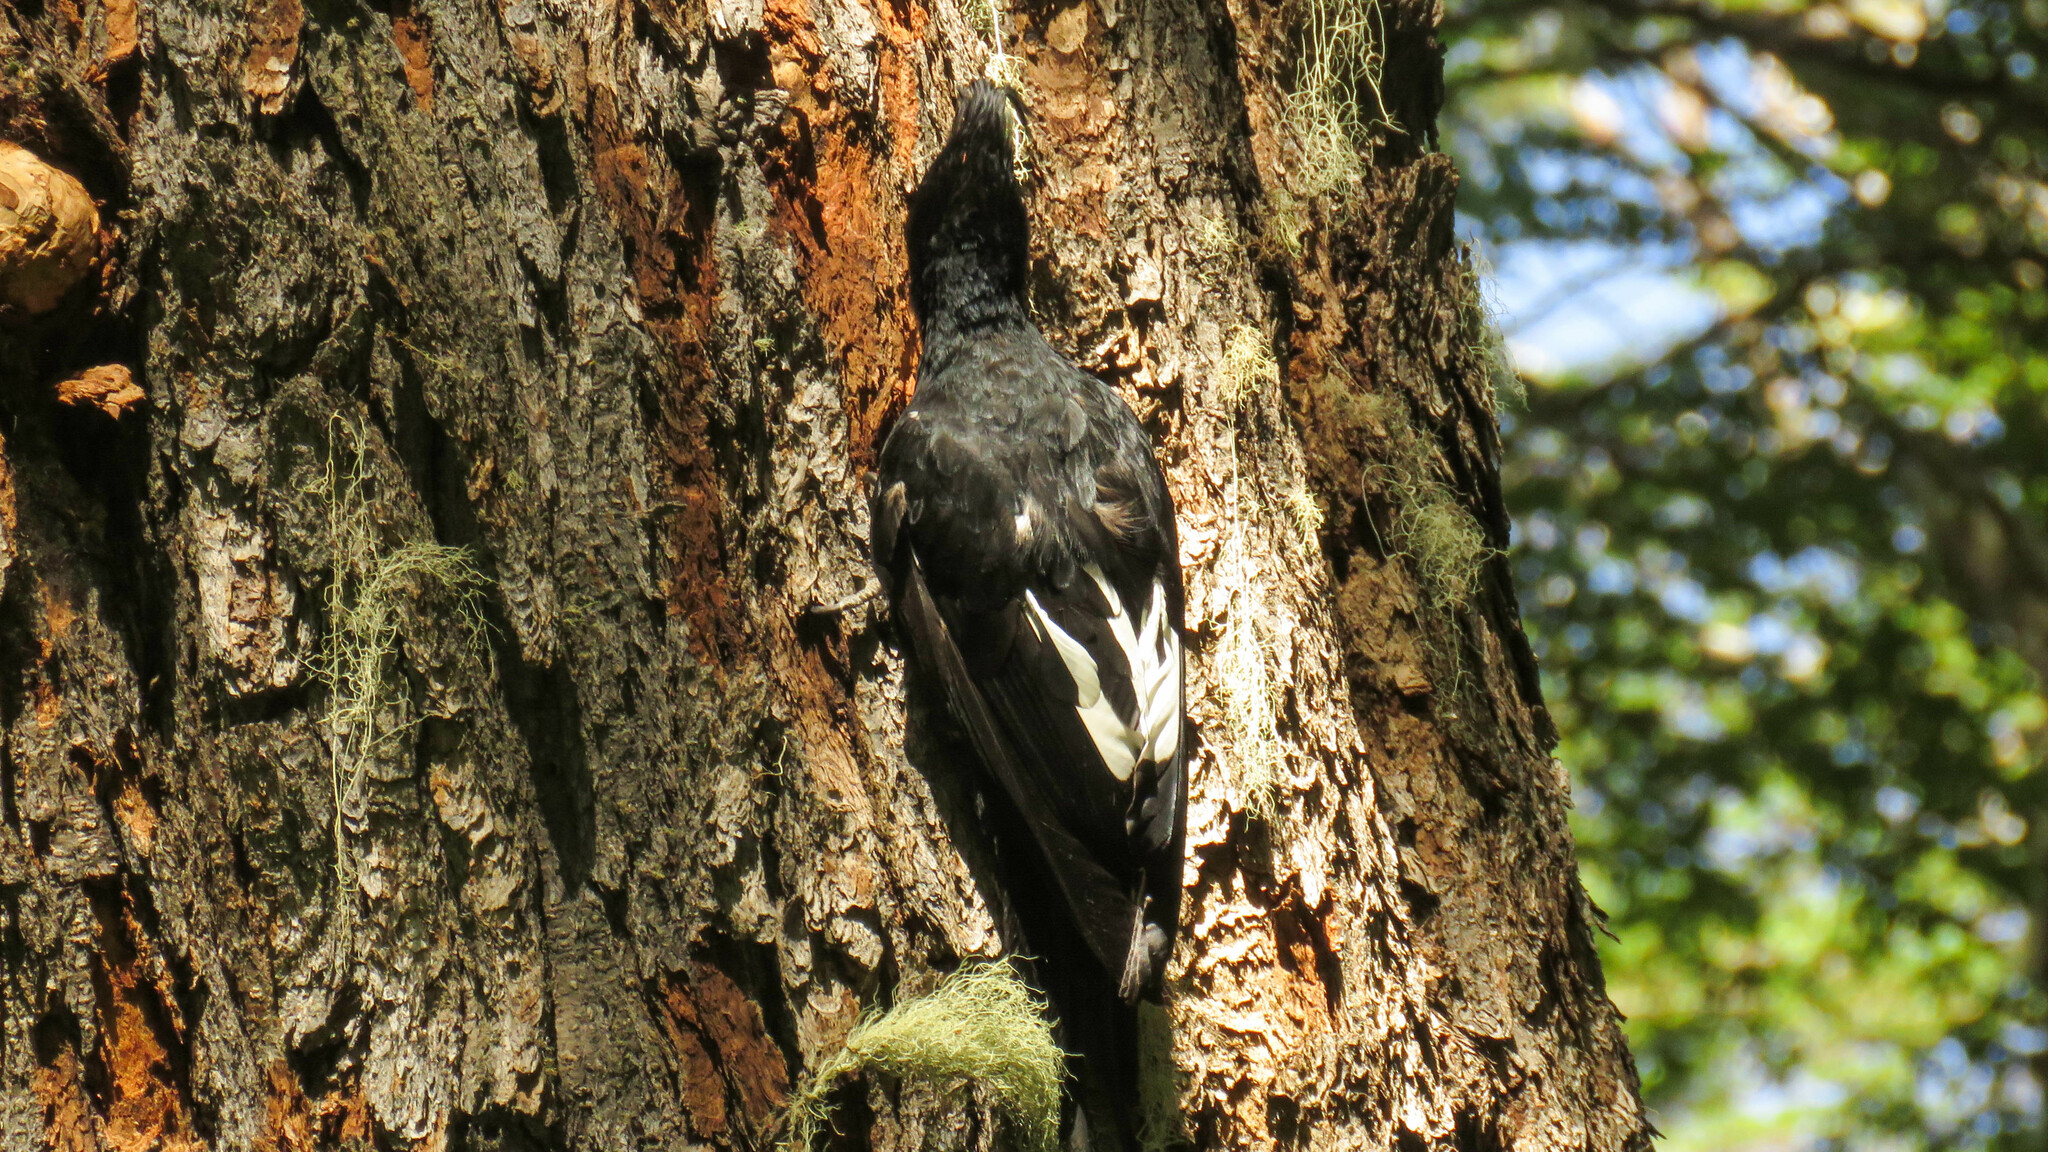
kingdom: Animalia
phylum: Chordata
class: Aves
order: Piciformes
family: Picidae
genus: Campephilus
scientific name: Campephilus magellanicus
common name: Magellanic woodpecker
